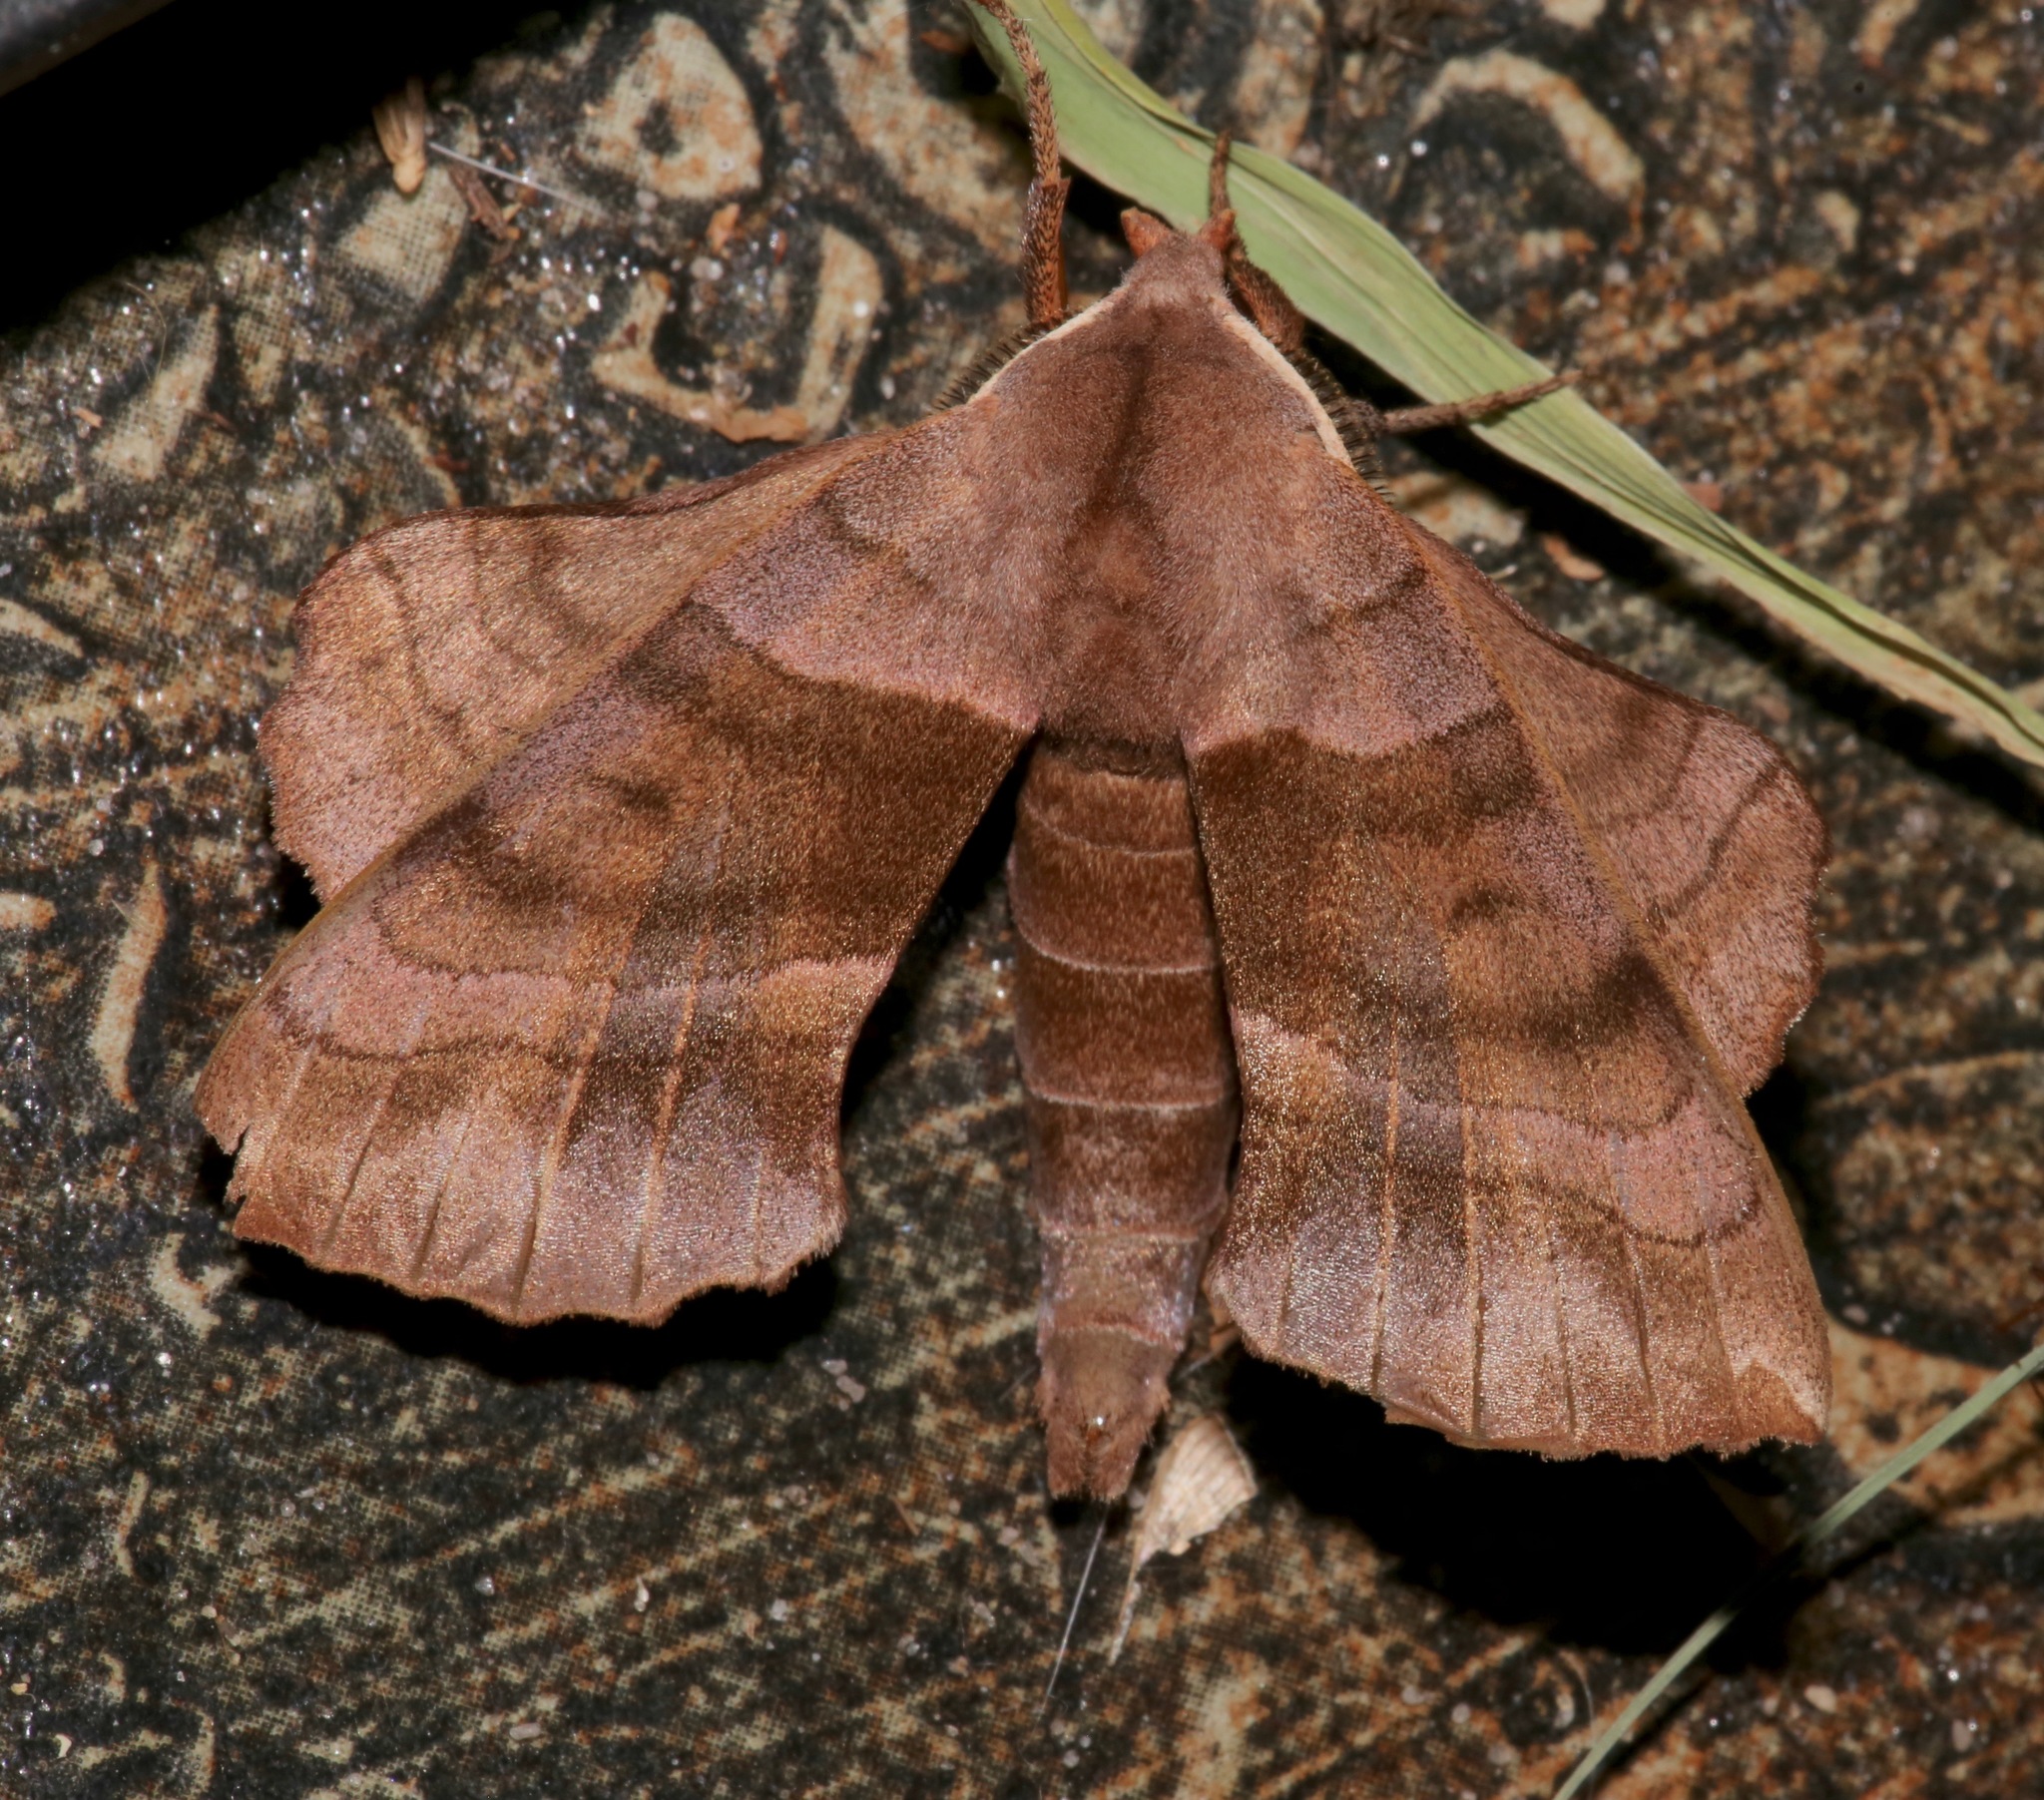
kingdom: Animalia
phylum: Arthropoda
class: Insecta
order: Lepidoptera
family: Sphingidae
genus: Amorpha
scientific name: Amorpha juglandis
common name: Walnut sphinx
